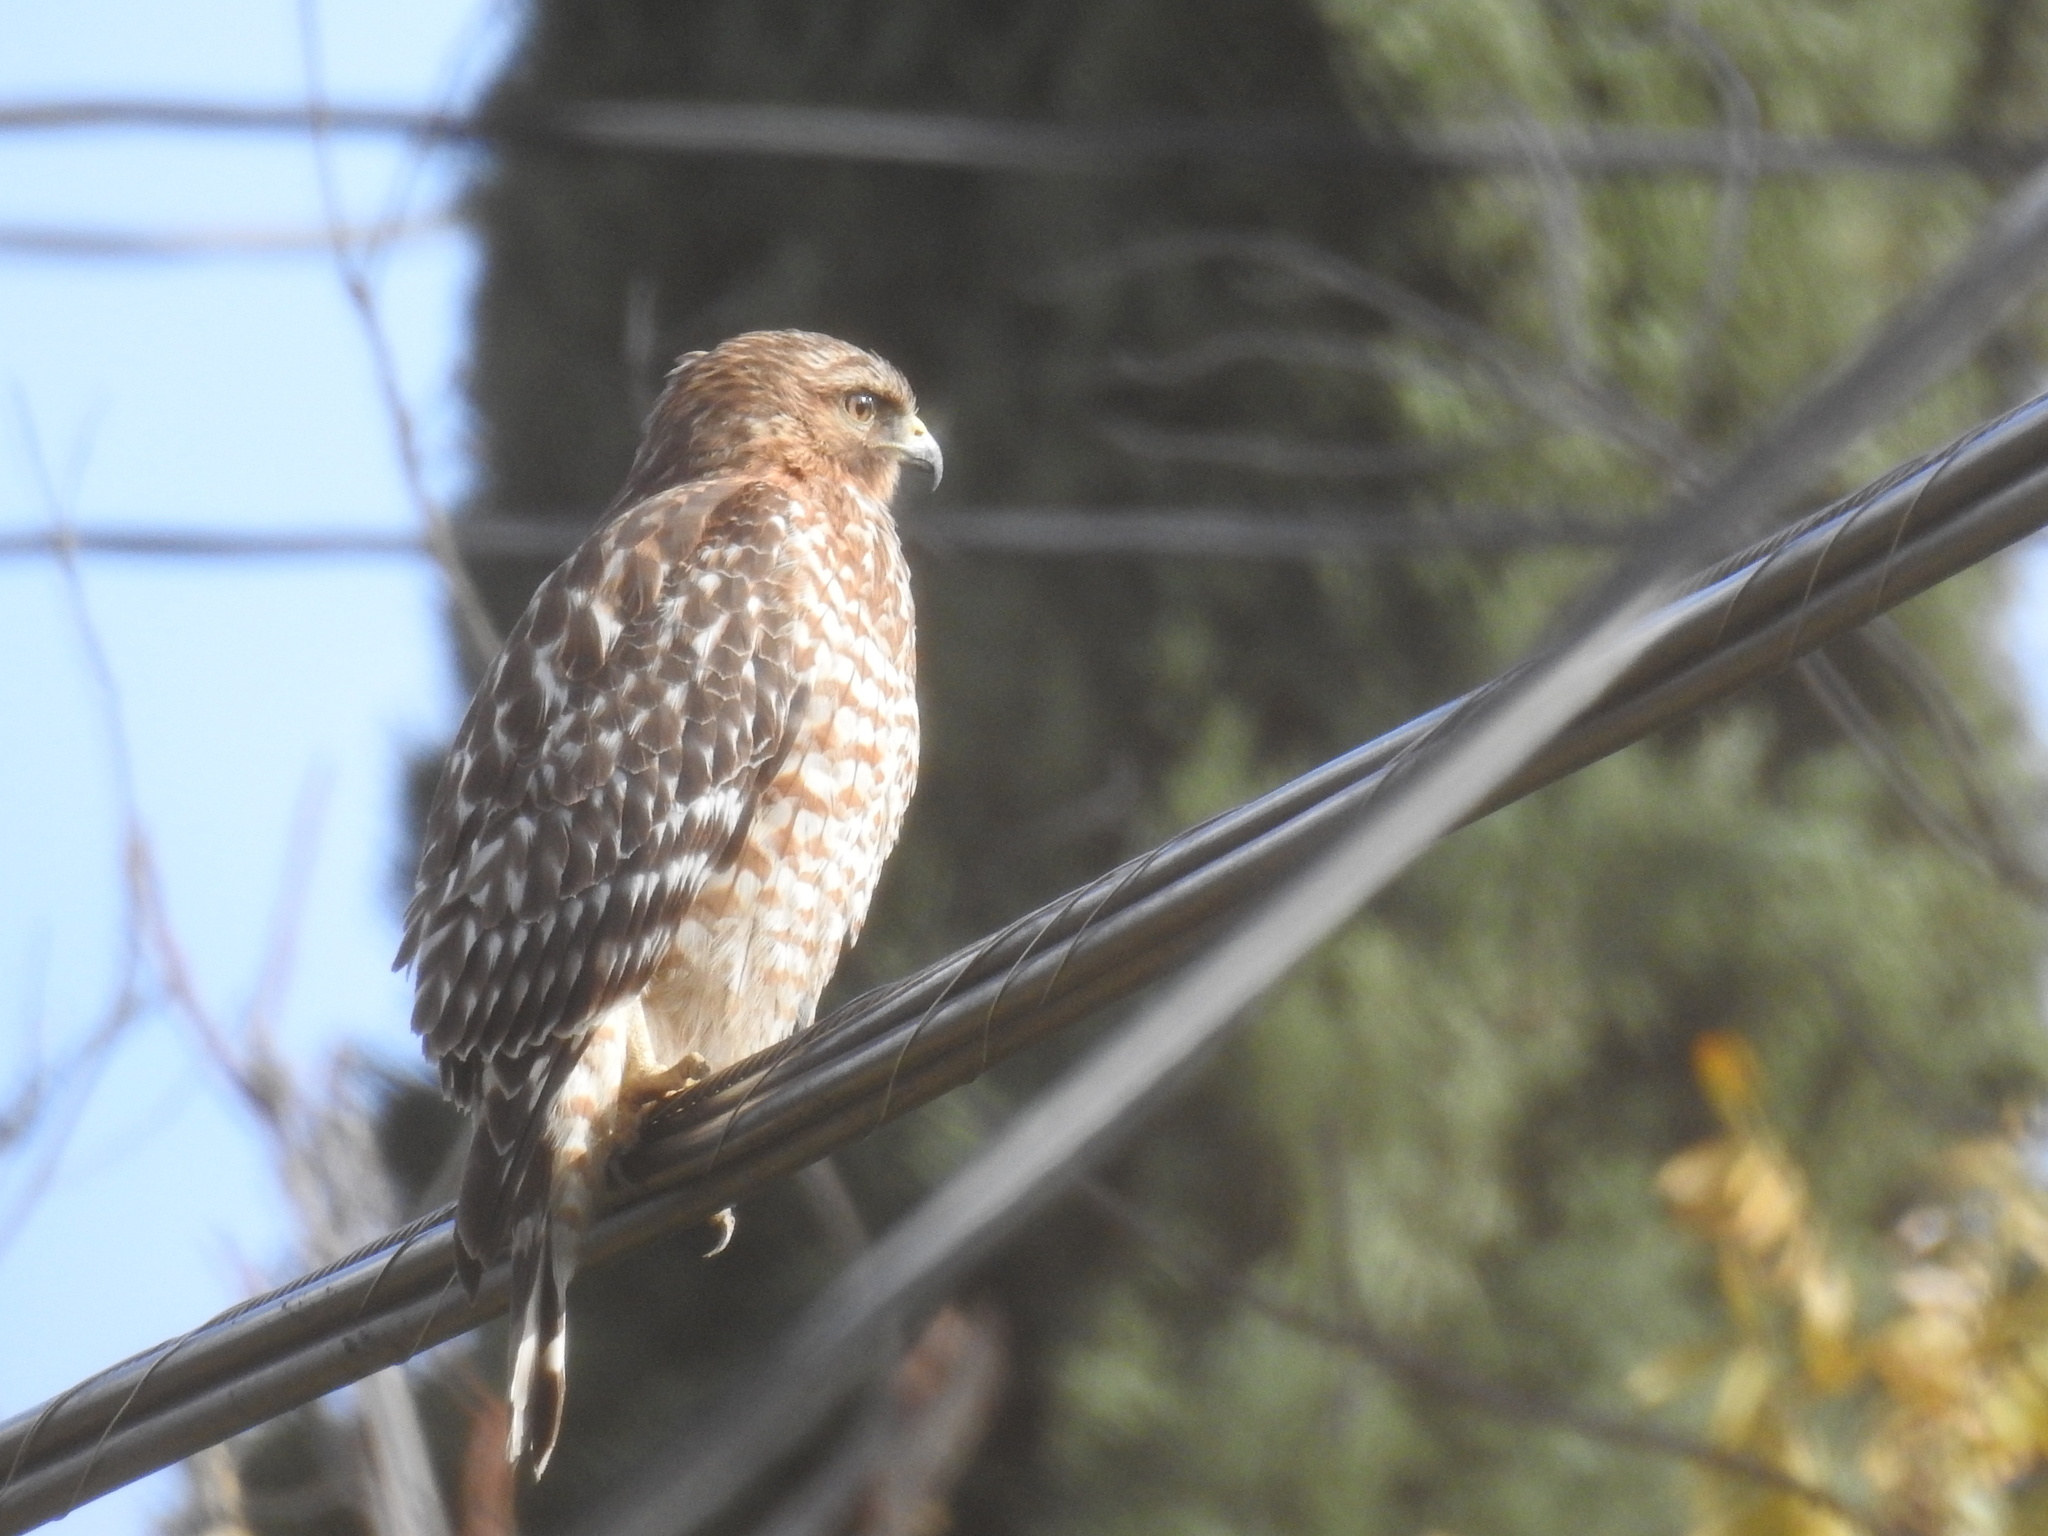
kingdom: Animalia
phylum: Chordata
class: Aves
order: Accipitriformes
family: Accipitridae
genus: Buteo
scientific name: Buteo lineatus
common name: Red-shouldered hawk
